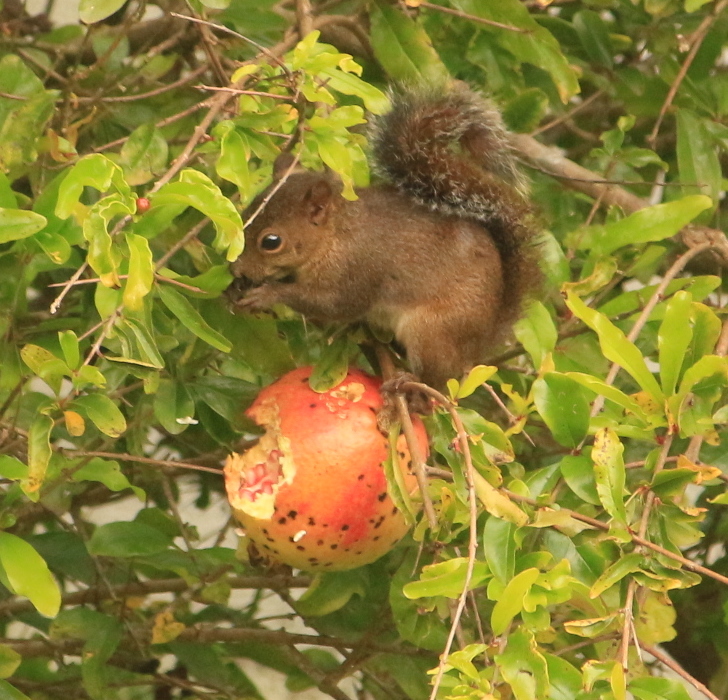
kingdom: Animalia
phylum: Chordata
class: Mammalia
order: Rodentia
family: Sciuridae
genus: Sciurus
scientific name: Sciurus deppei
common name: Deppe's squirrel
